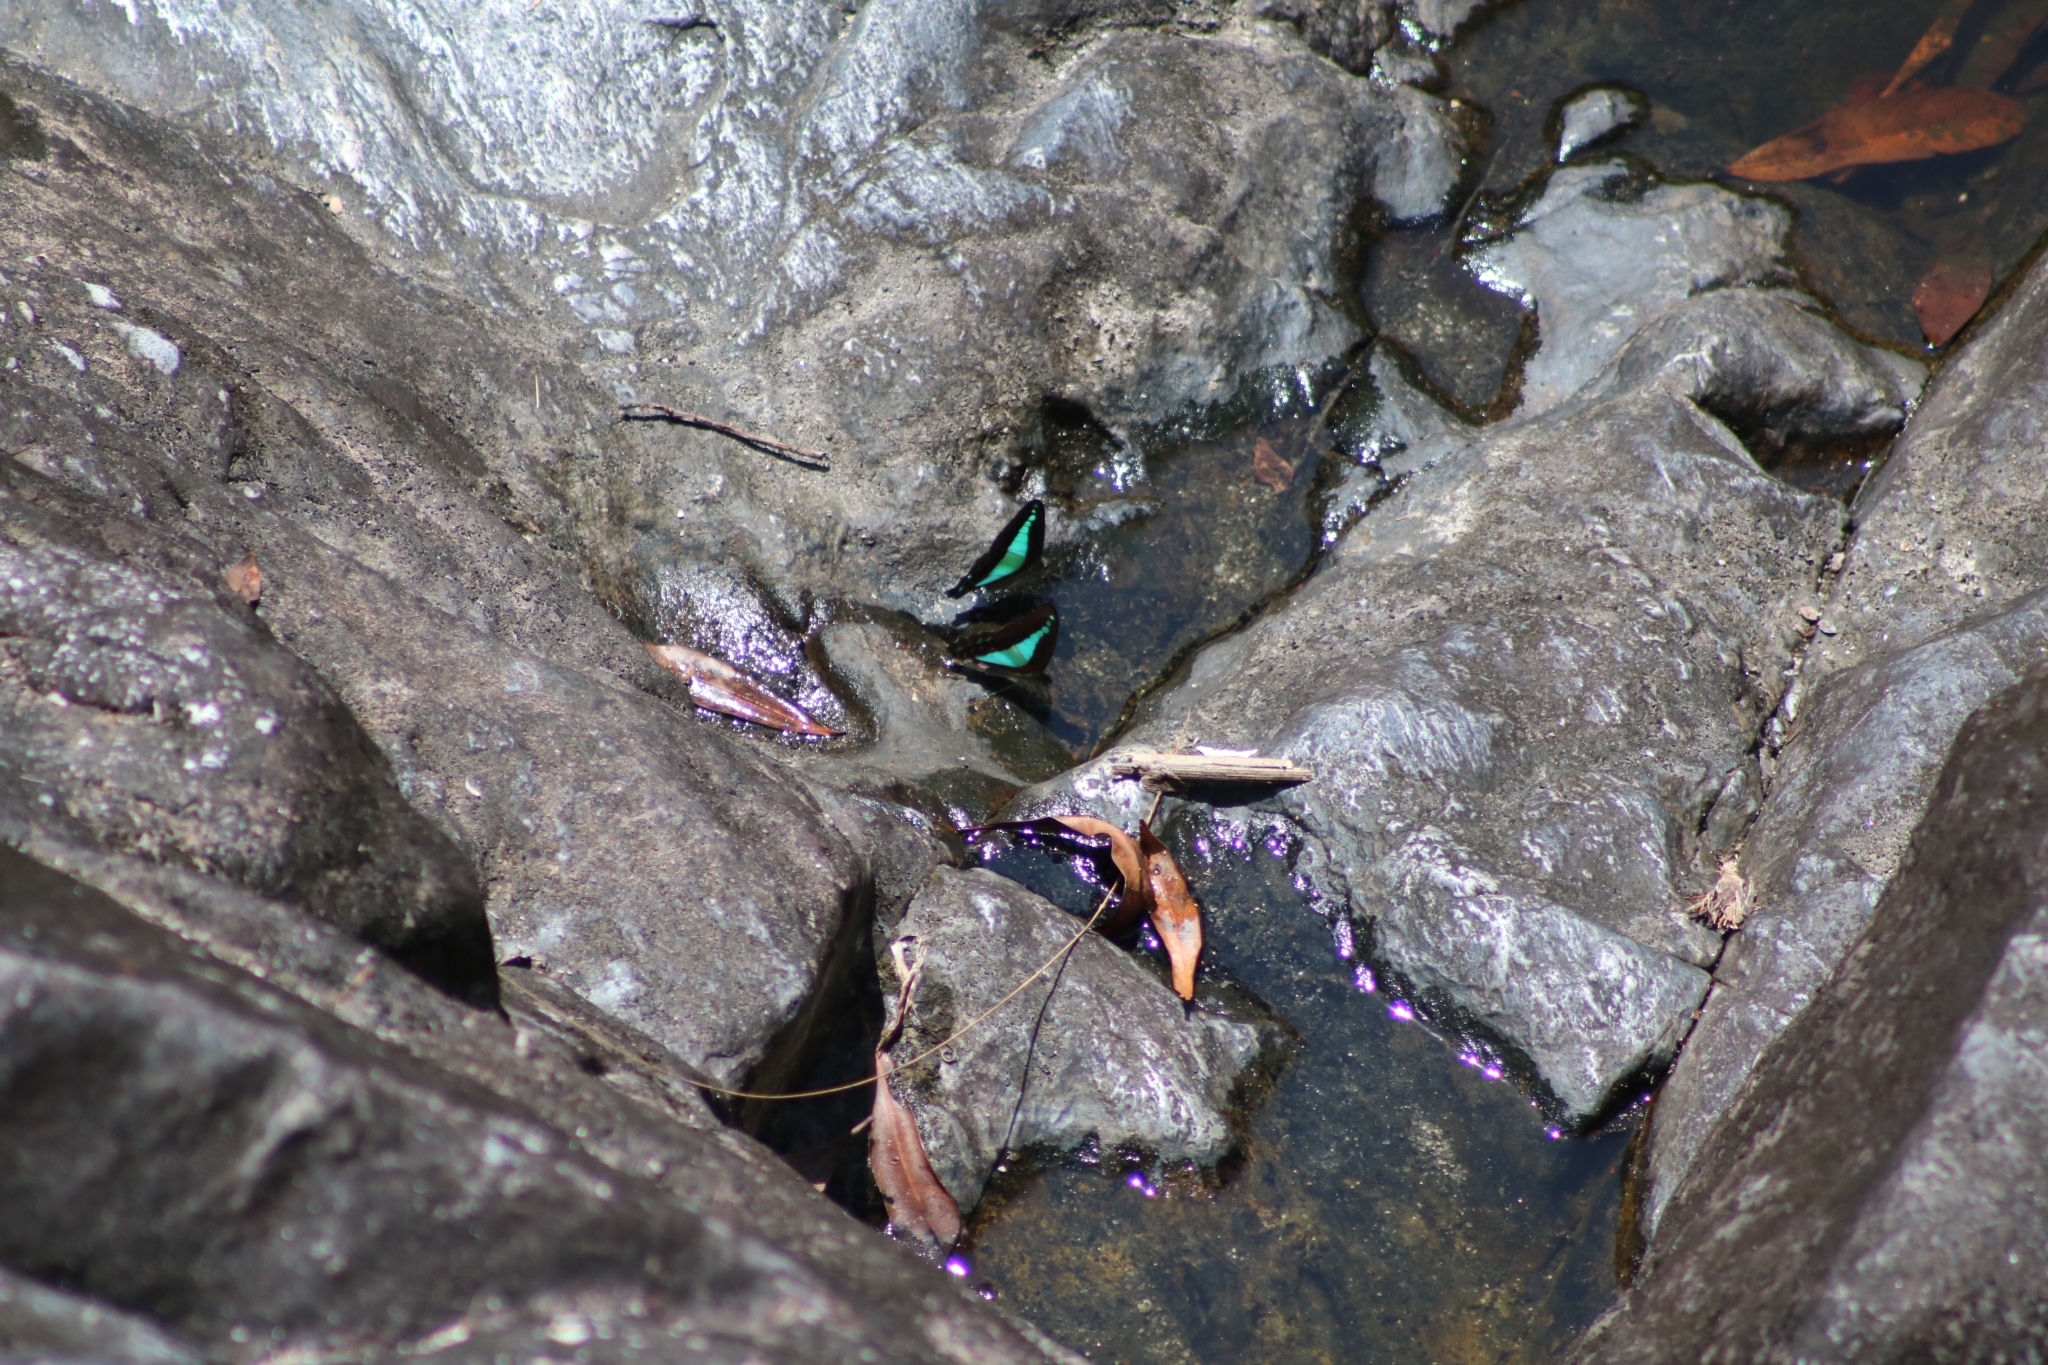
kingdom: Animalia
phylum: Arthropoda
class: Insecta
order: Lepidoptera
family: Papilionidae
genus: Graphium
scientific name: Graphium
